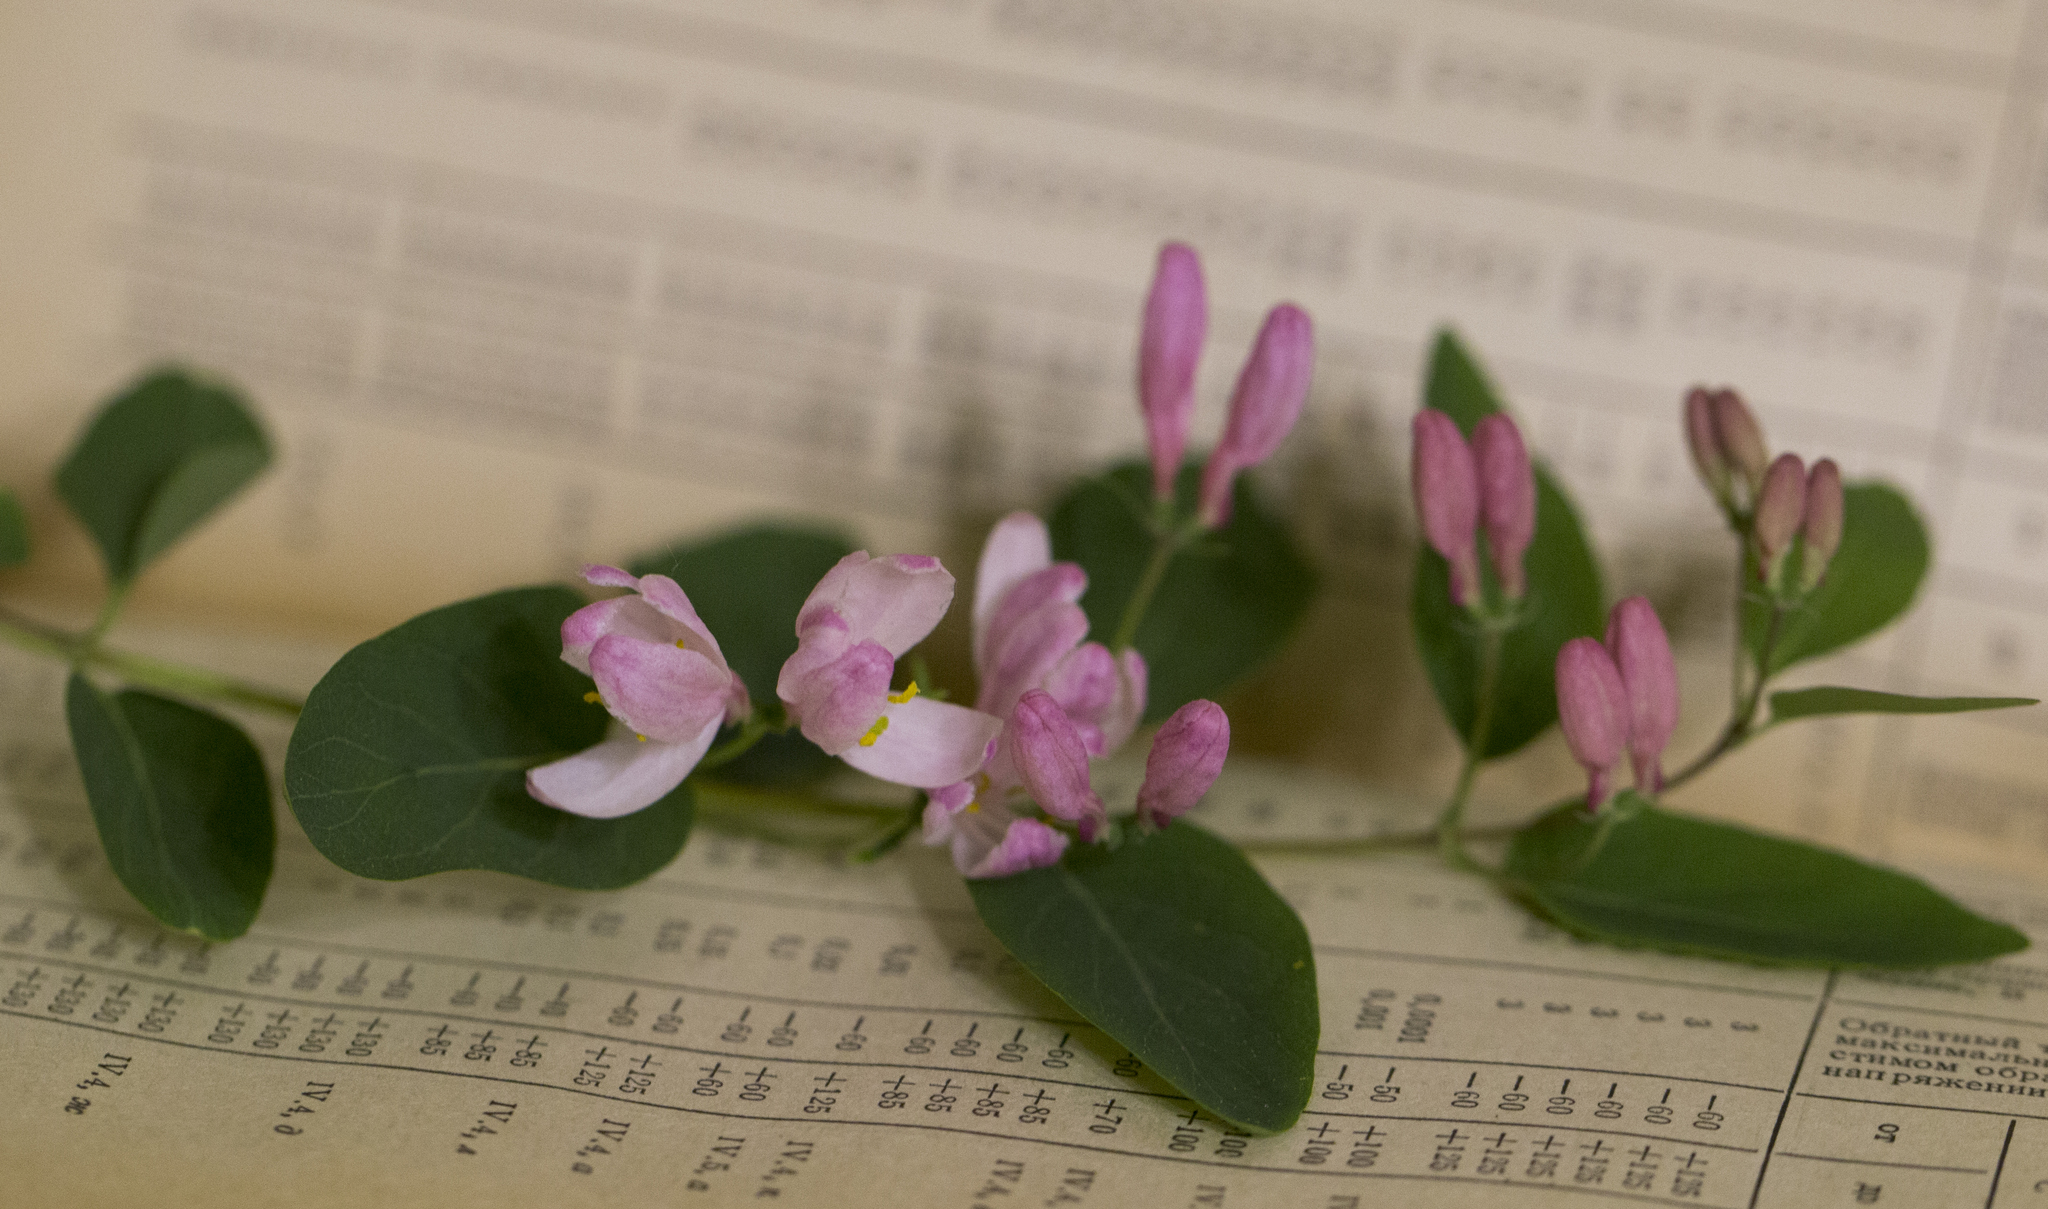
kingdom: Plantae
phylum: Tracheophyta
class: Magnoliopsida
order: Dipsacales
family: Caprifoliaceae
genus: Lonicera
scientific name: Lonicera tatarica
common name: Tatarian honeysuckle
